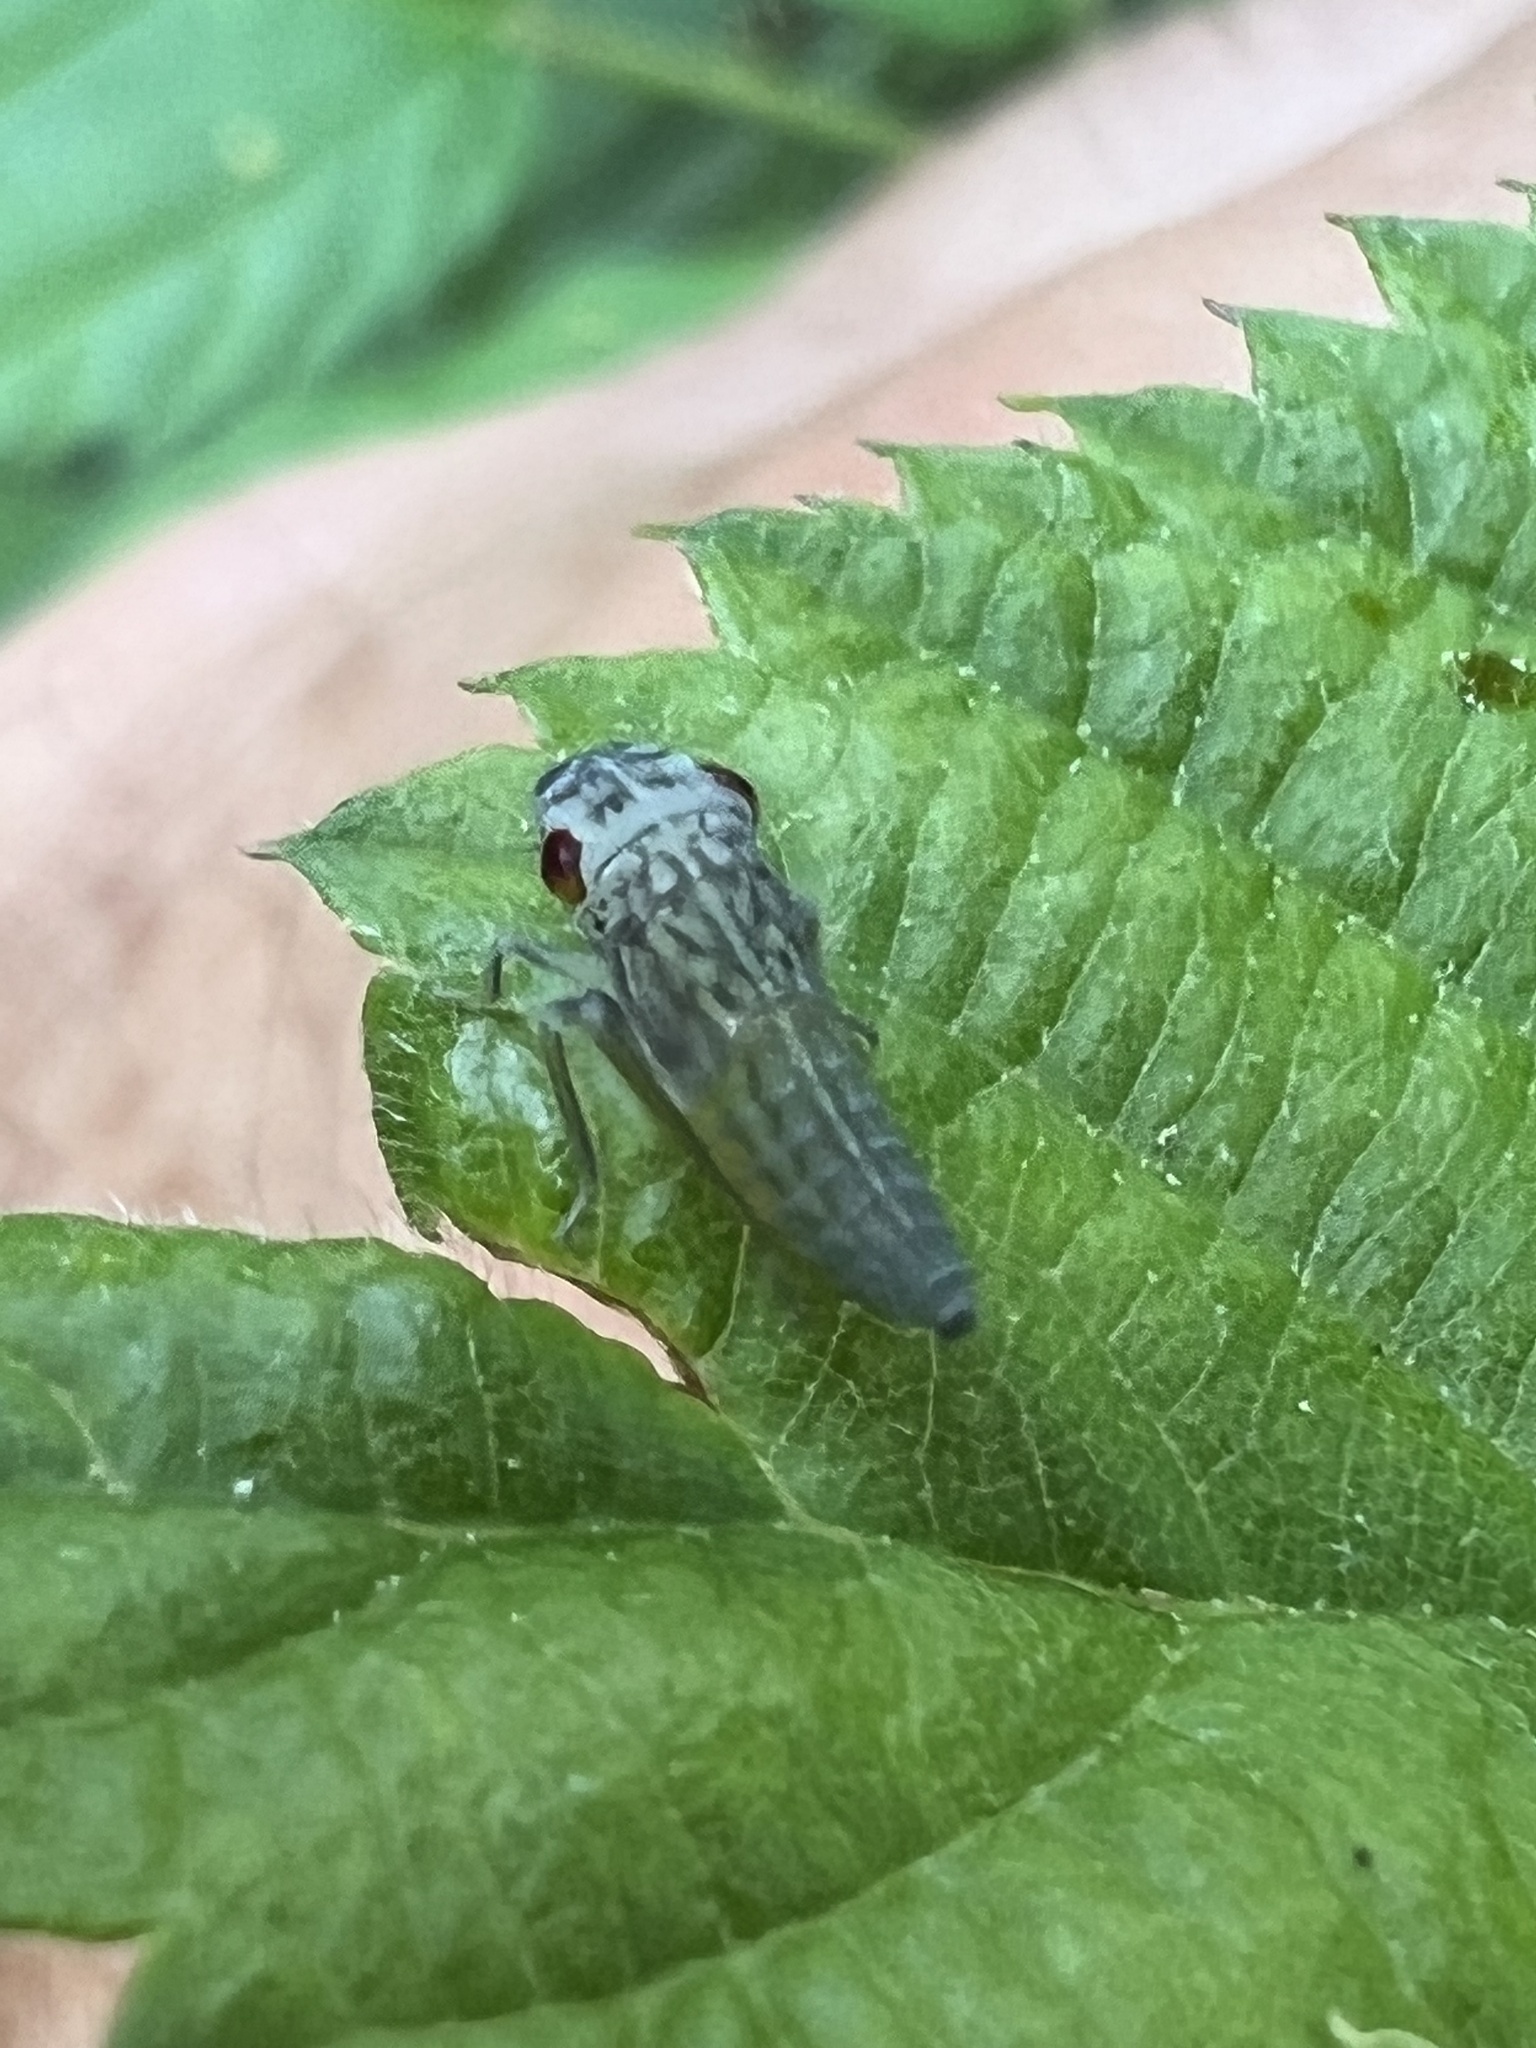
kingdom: Animalia
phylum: Arthropoda
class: Insecta
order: Hemiptera
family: Cicadellidae
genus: Oncometopia
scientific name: Oncometopia orbona
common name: Broad-headed sharpshooter
